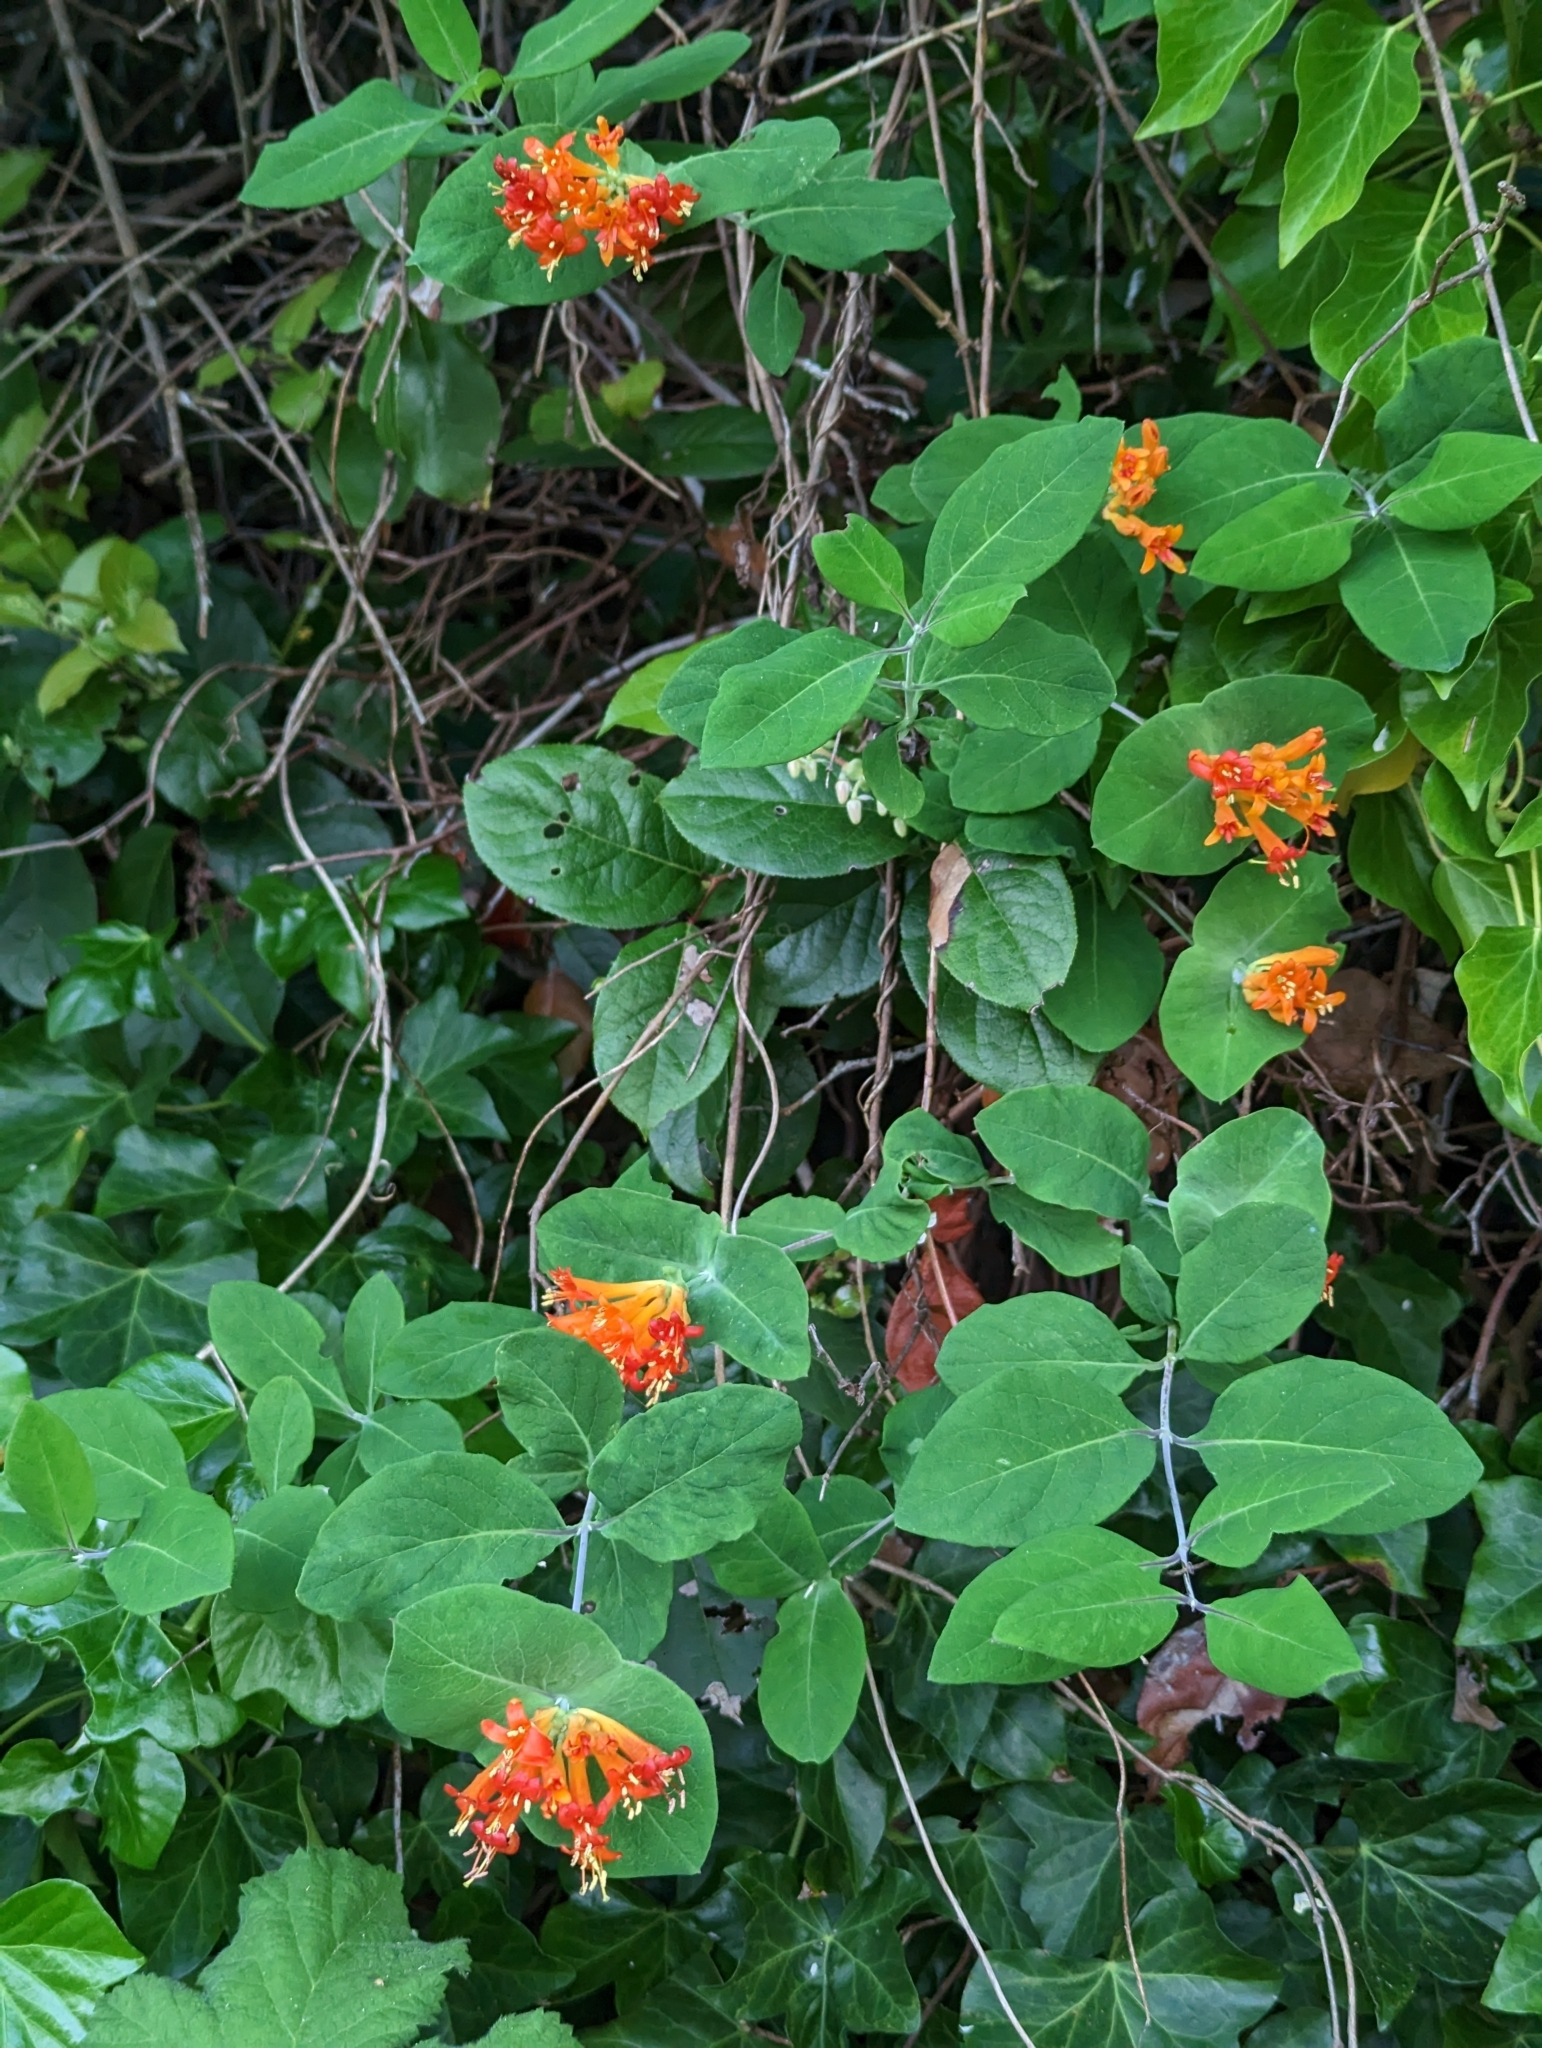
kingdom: Plantae
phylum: Tracheophyta
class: Magnoliopsida
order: Dipsacales
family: Caprifoliaceae
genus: Lonicera
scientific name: Lonicera ciliosa
